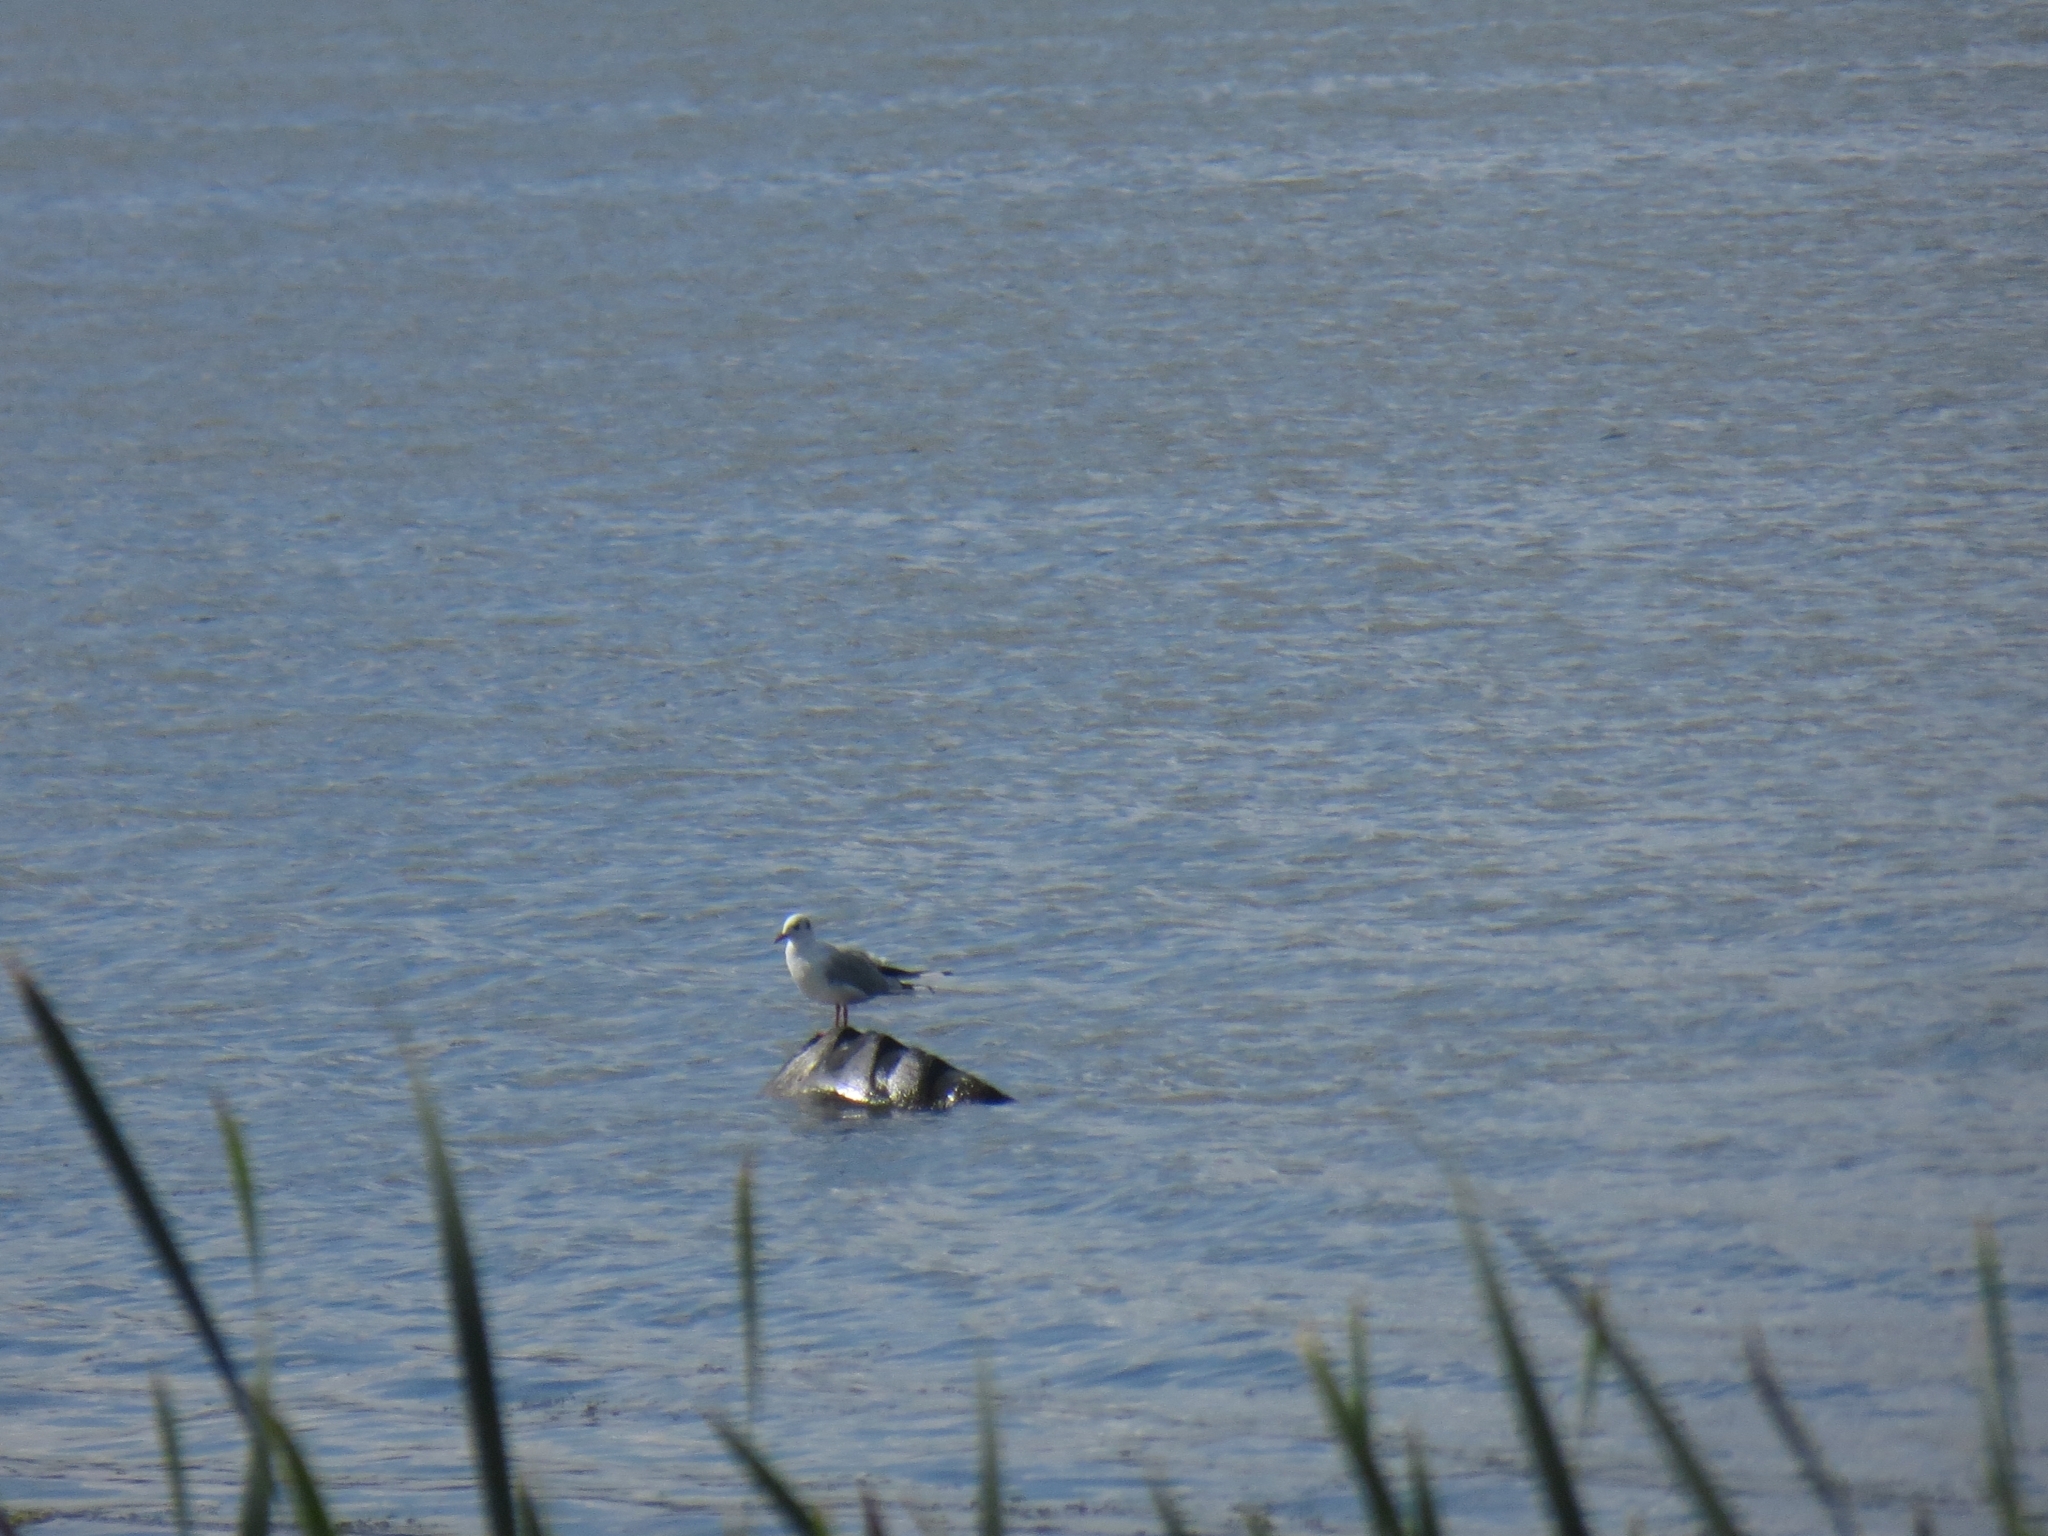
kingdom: Animalia
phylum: Chordata
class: Aves
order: Charadriiformes
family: Laridae
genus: Chroicocephalus
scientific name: Chroicocephalus ridibundus
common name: Black-headed gull
